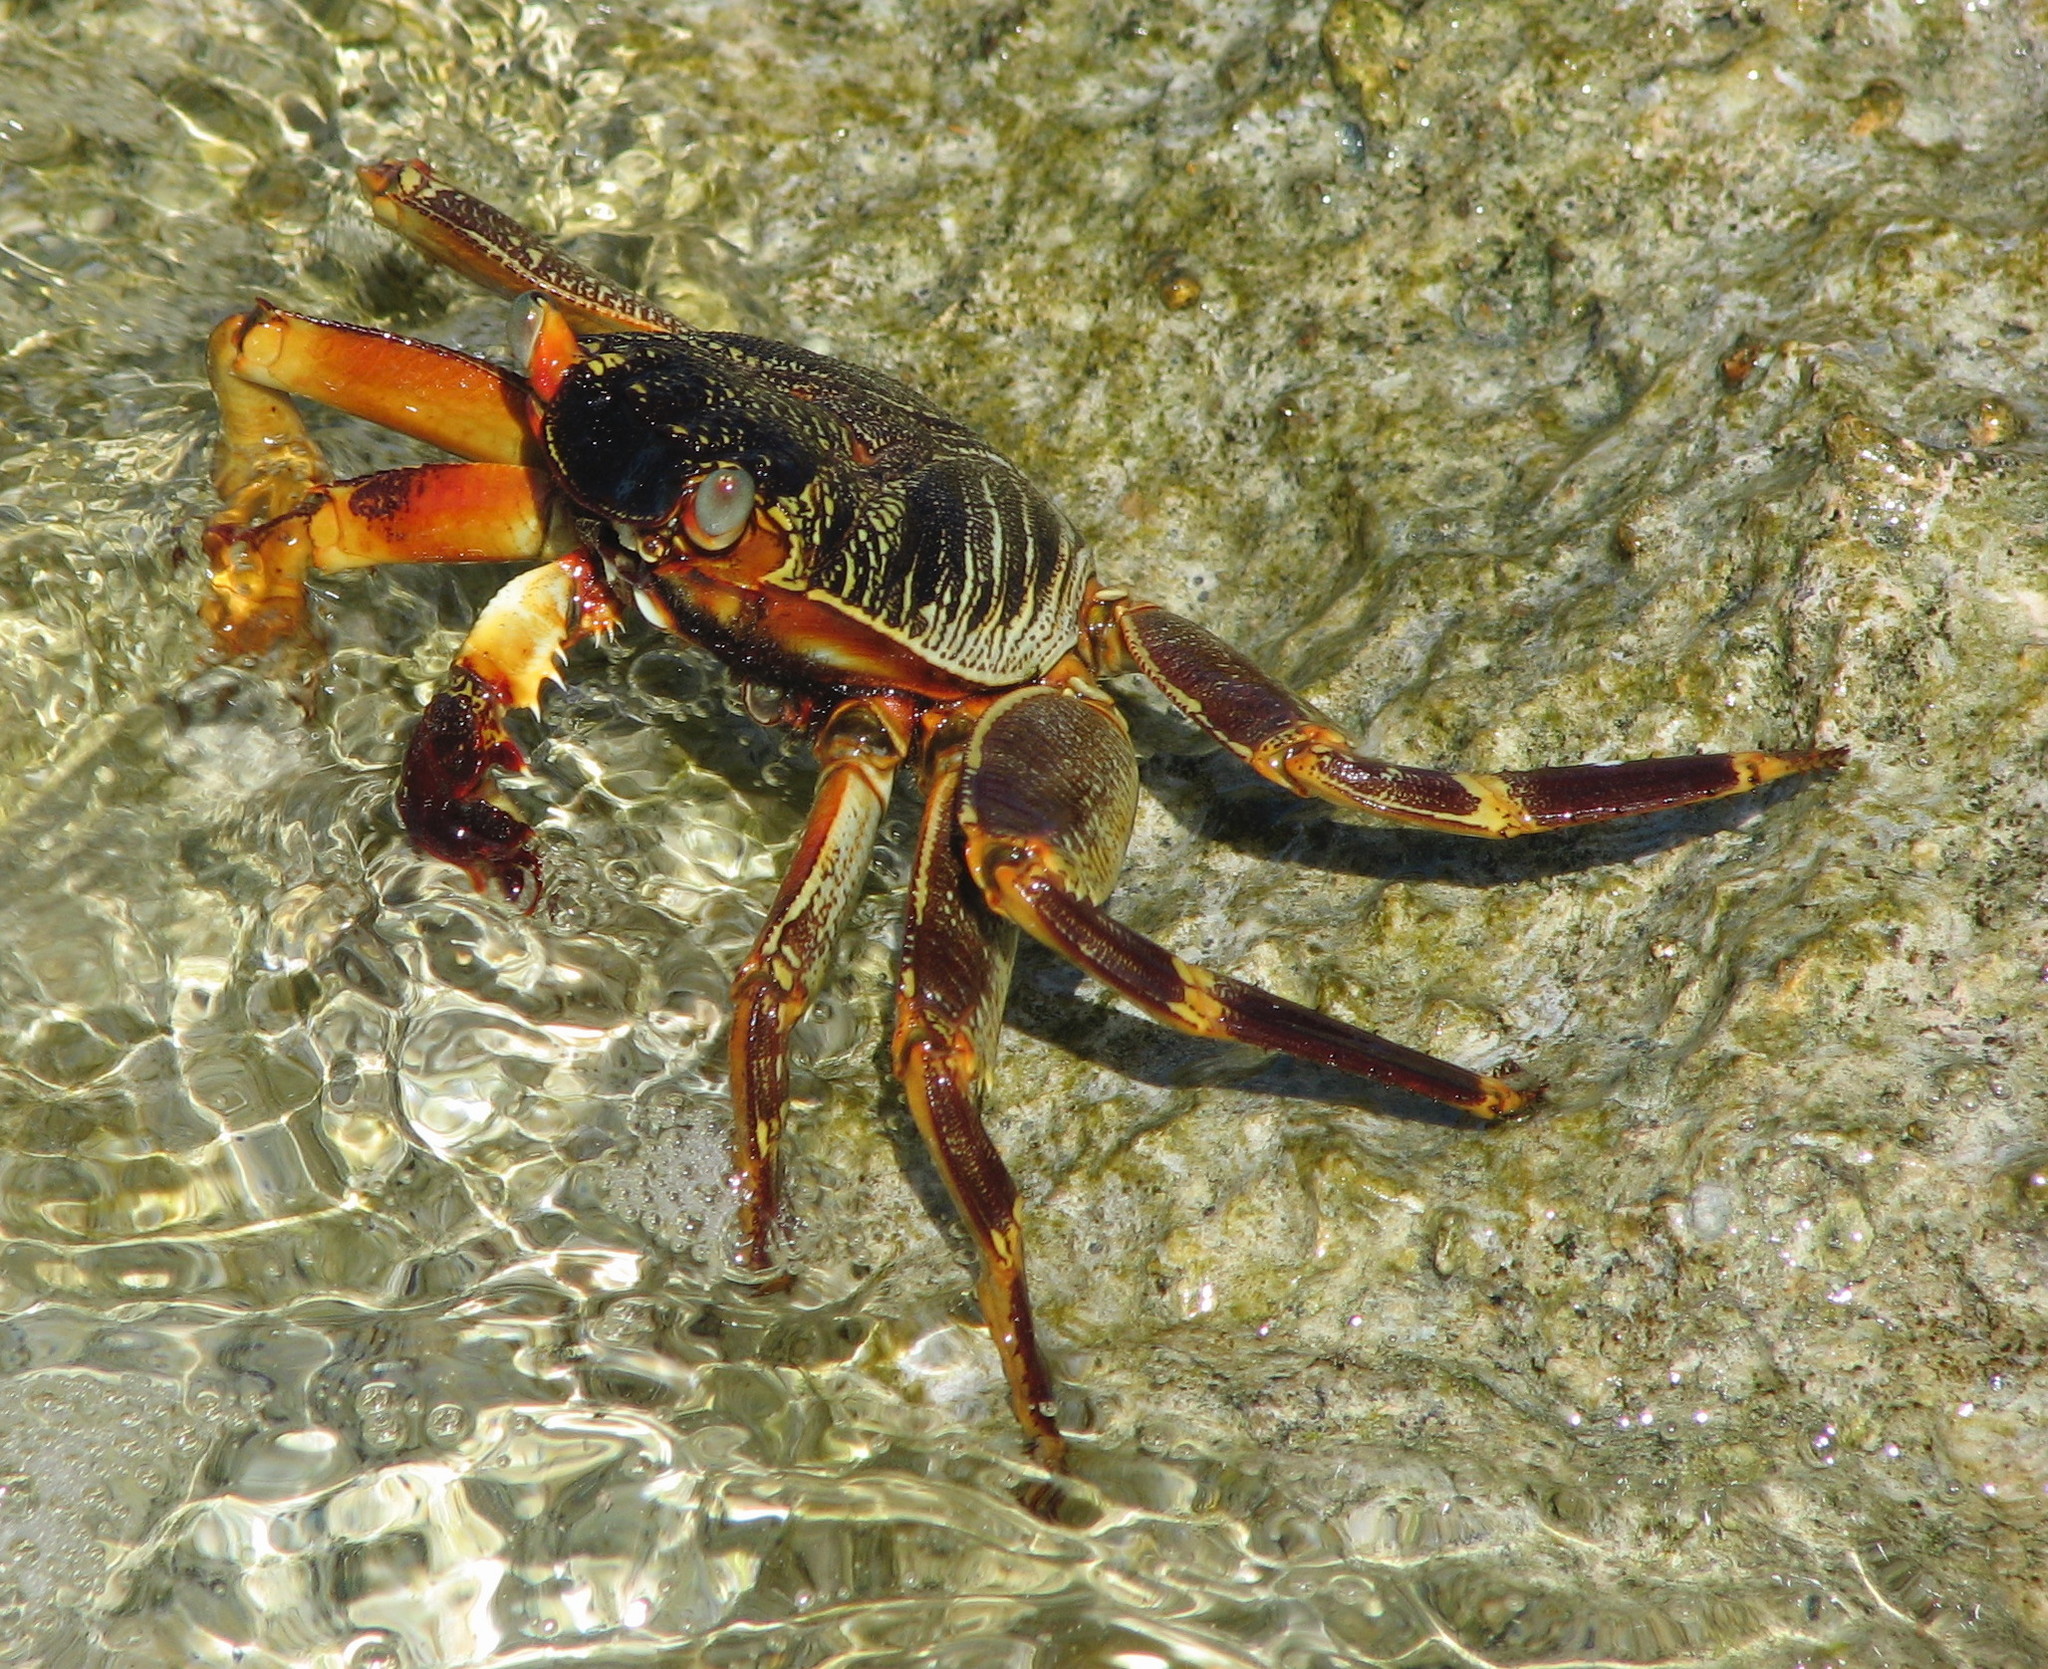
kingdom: Animalia
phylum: Arthropoda
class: Malacostraca
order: Decapoda
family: Grapsidae
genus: Grapsus
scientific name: Grapsus tenuicrustatus
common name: Natal lightfoot crab
